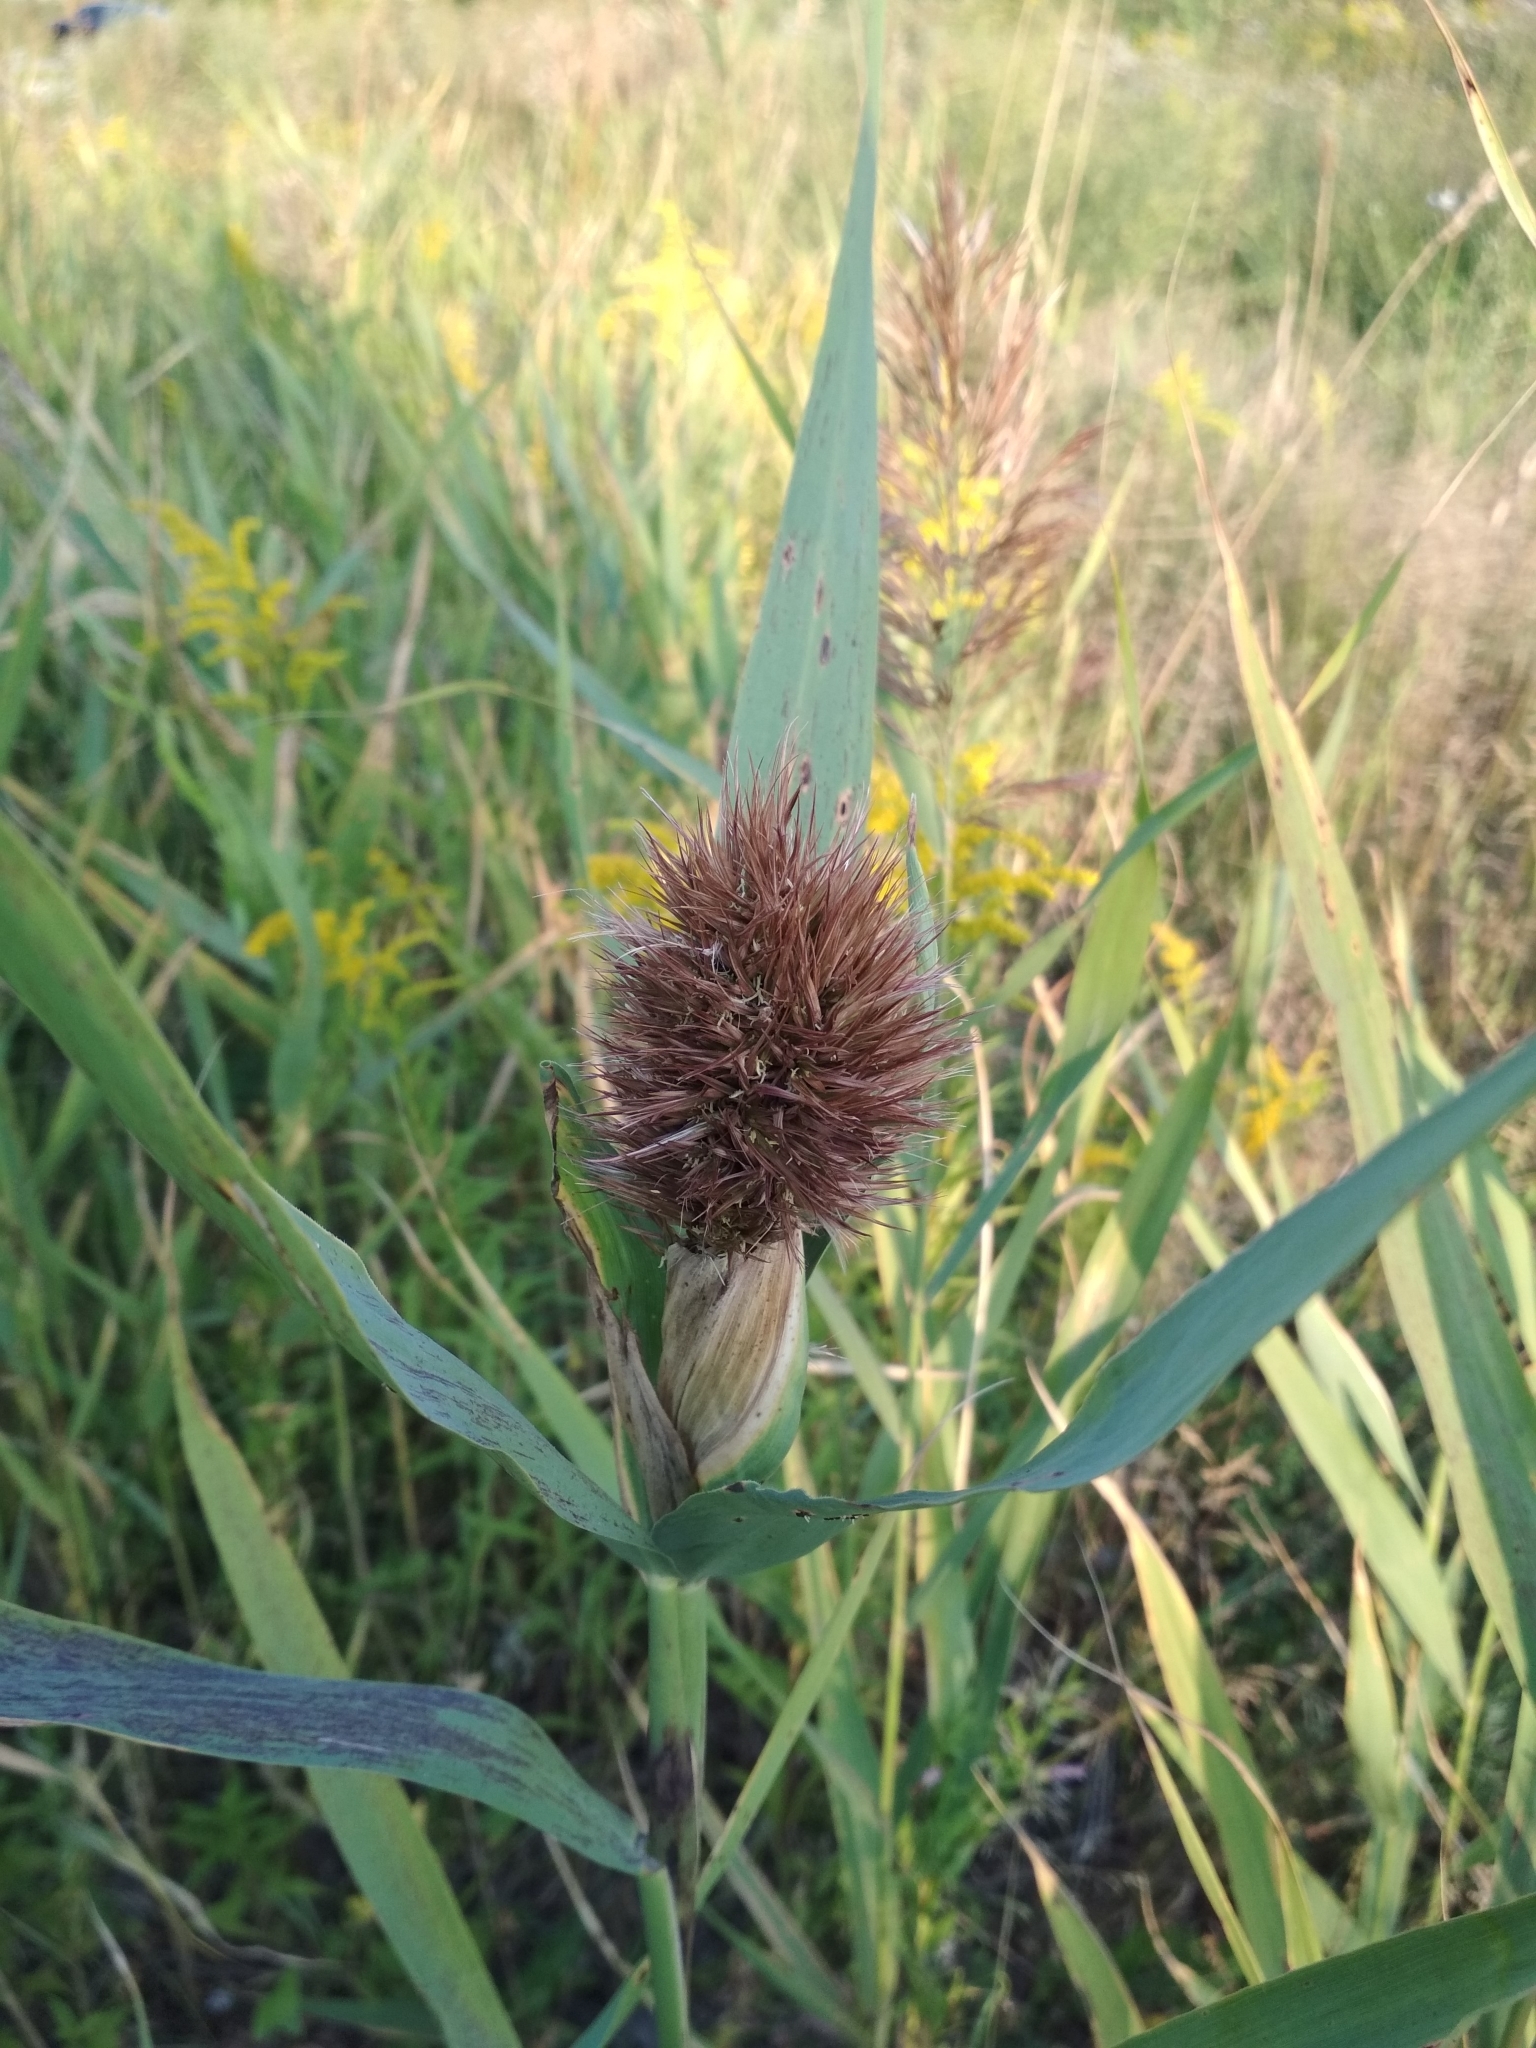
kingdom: Plantae
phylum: Tracheophyta
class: Liliopsida
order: Poales
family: Poaceae
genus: Phragmites
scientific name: Phragmites australis
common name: Common reed
